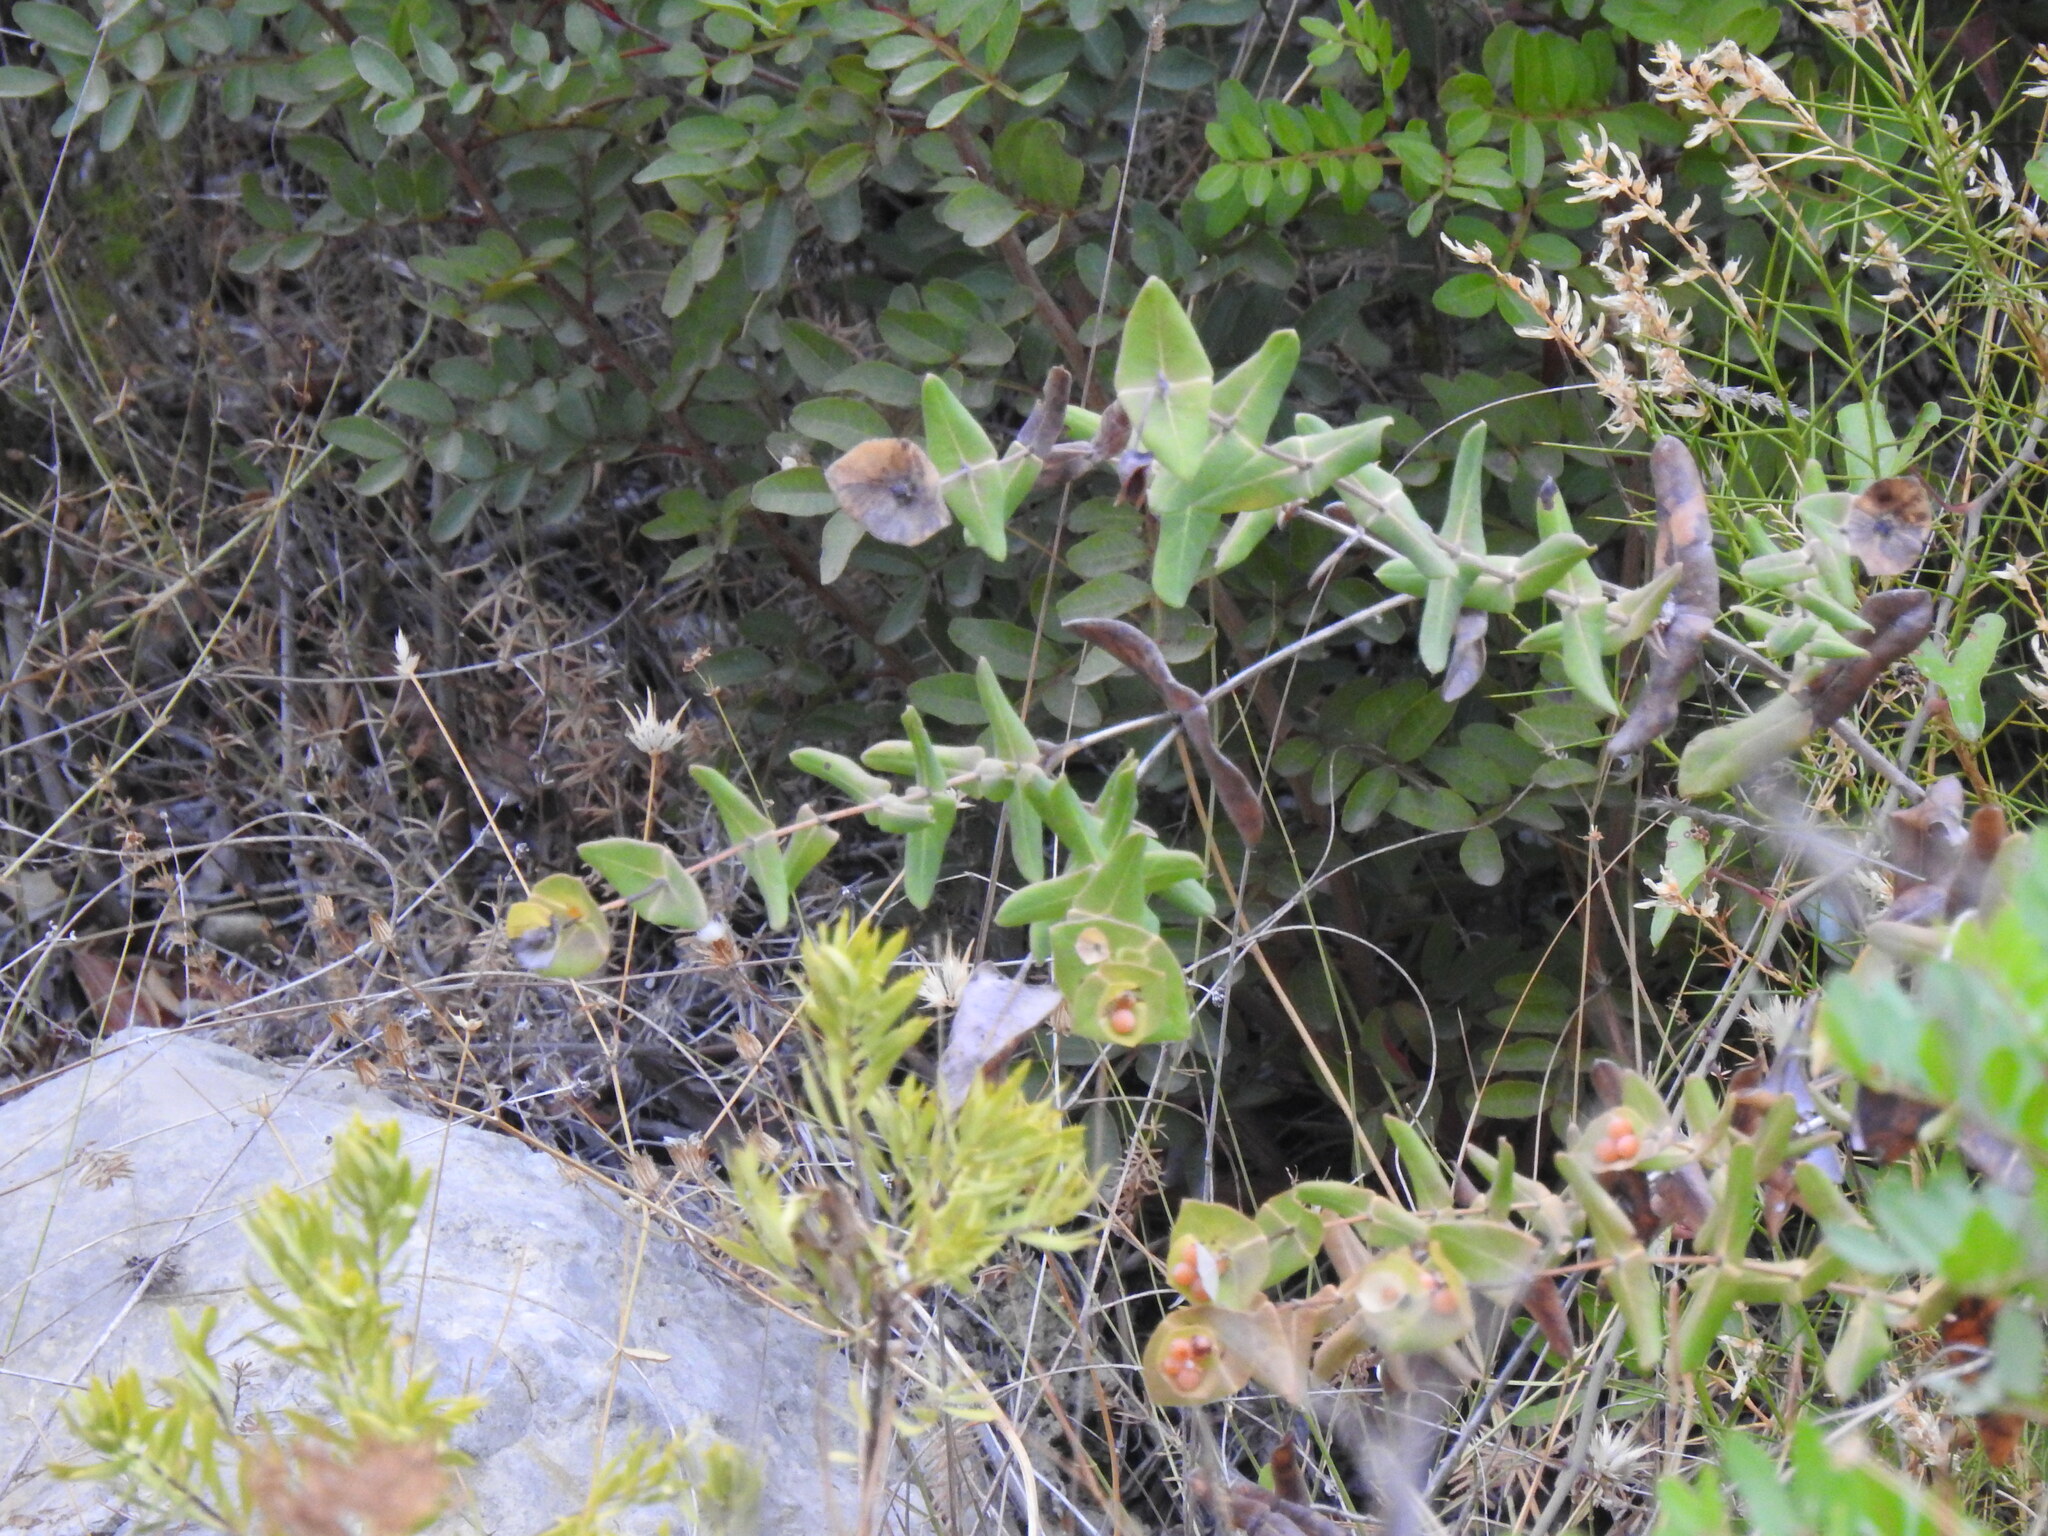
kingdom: Plantae
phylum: Tracheophyta
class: Magnoliopsida
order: Dipsacales
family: Caprifoliaceae
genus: Lonicera
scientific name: Lonicera implexa
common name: Minorca honeysuckle
